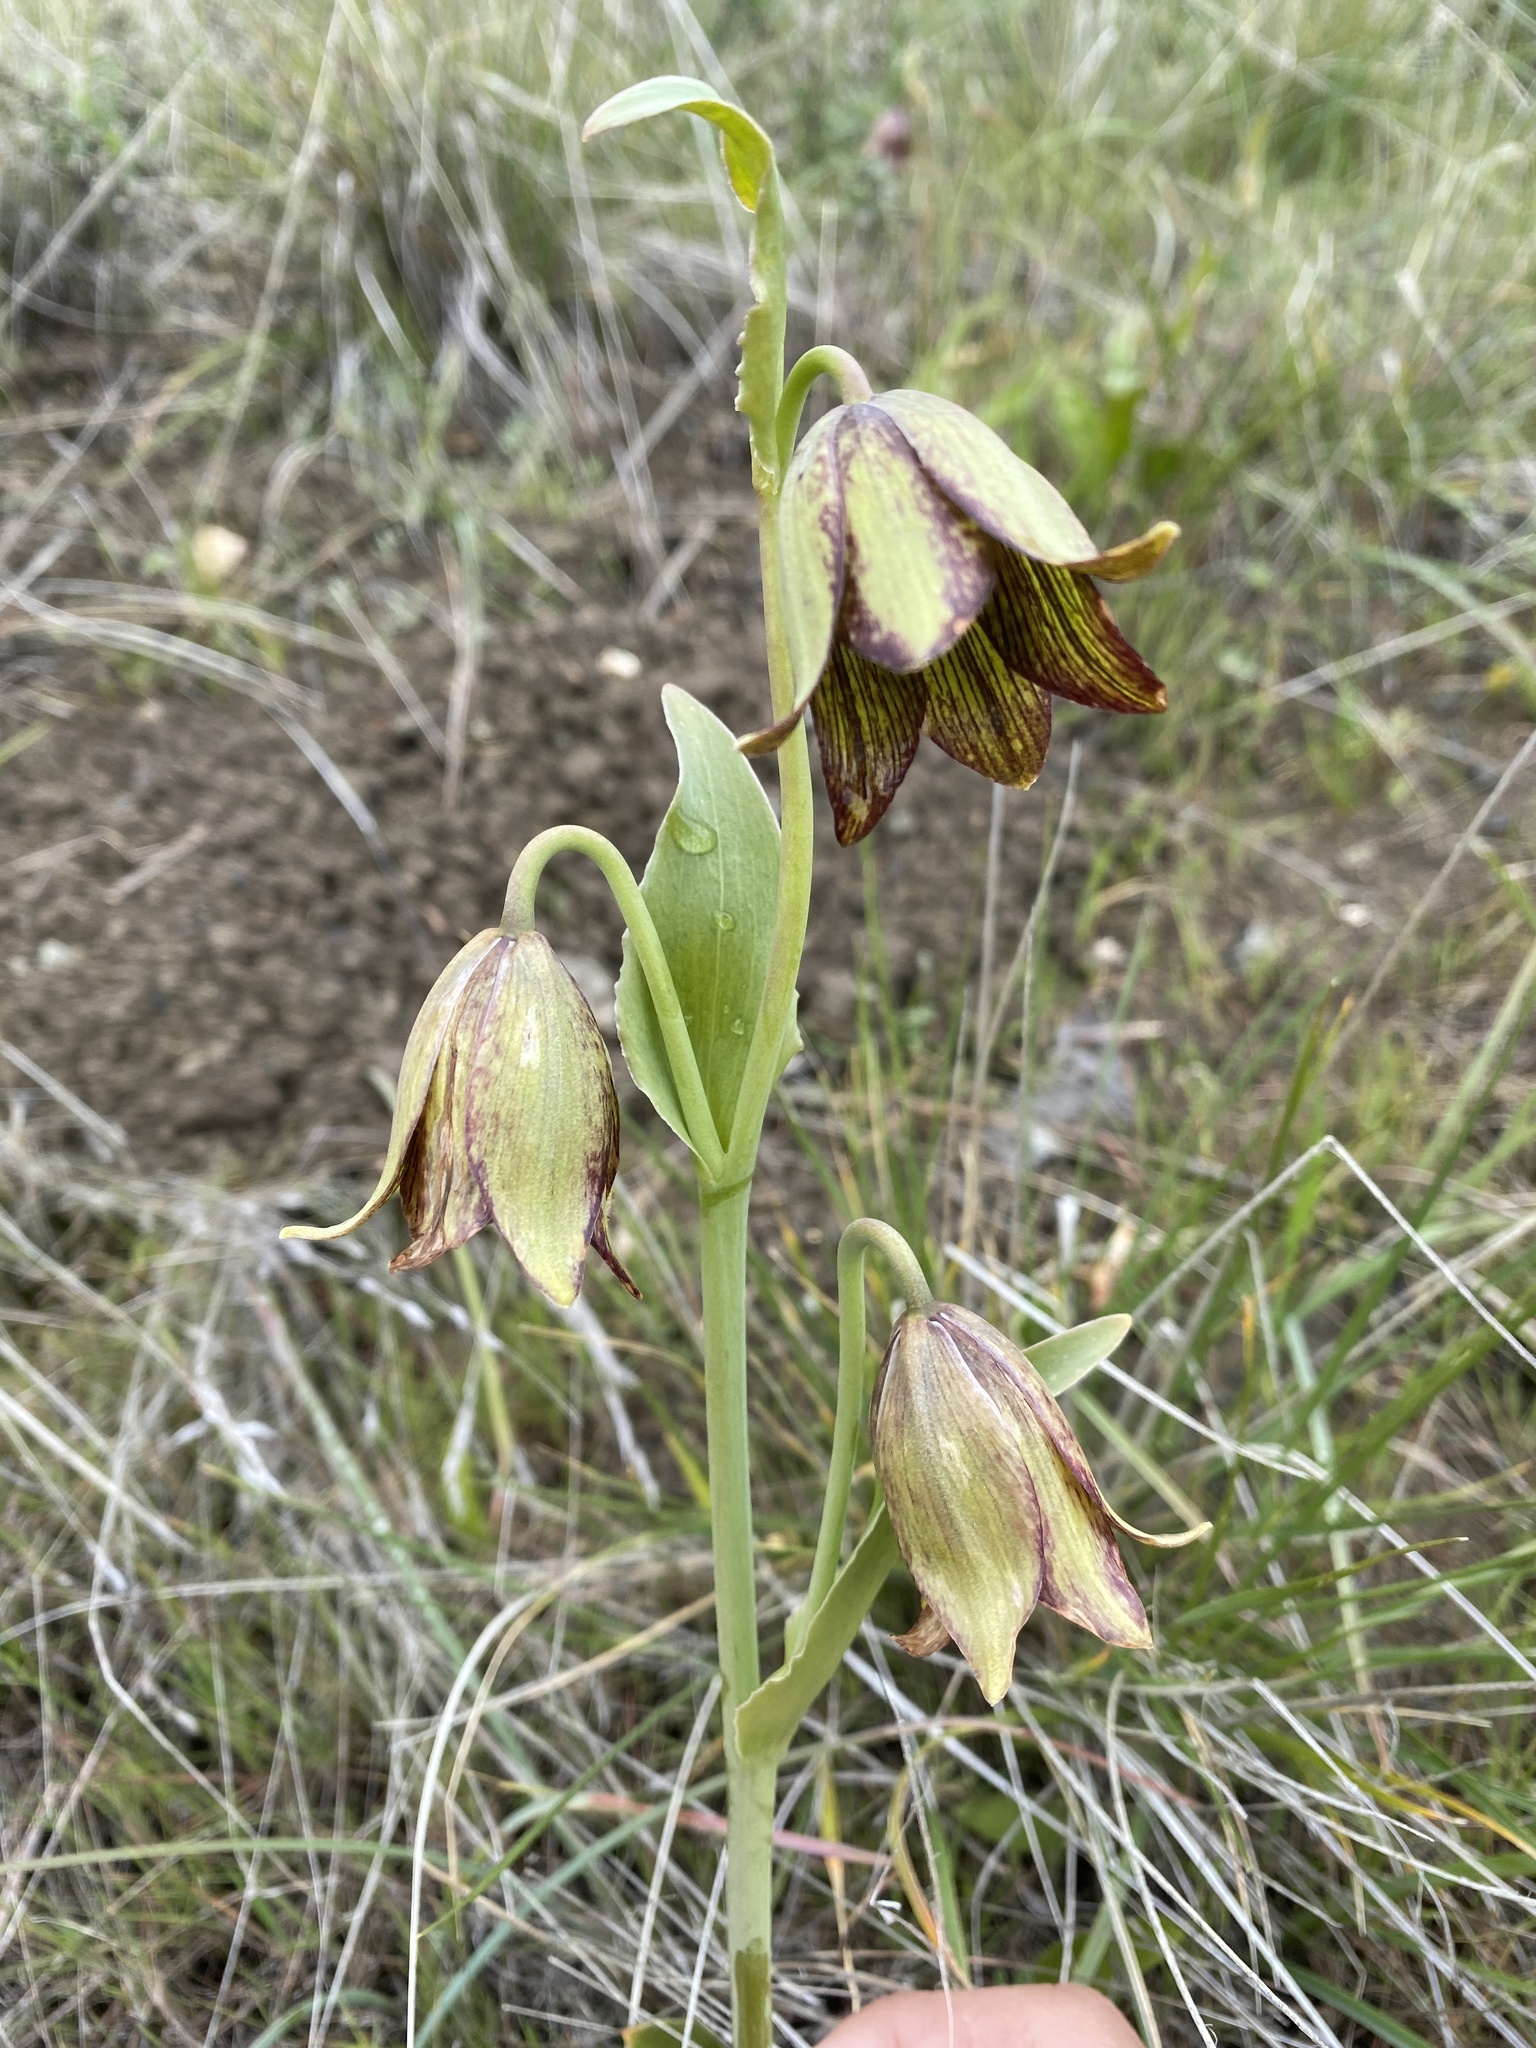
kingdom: Plantae
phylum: Tracheophyta
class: Liliopsida
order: Liliales
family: Liliaceae
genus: Fritillaria
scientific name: Fritillaria biflora
